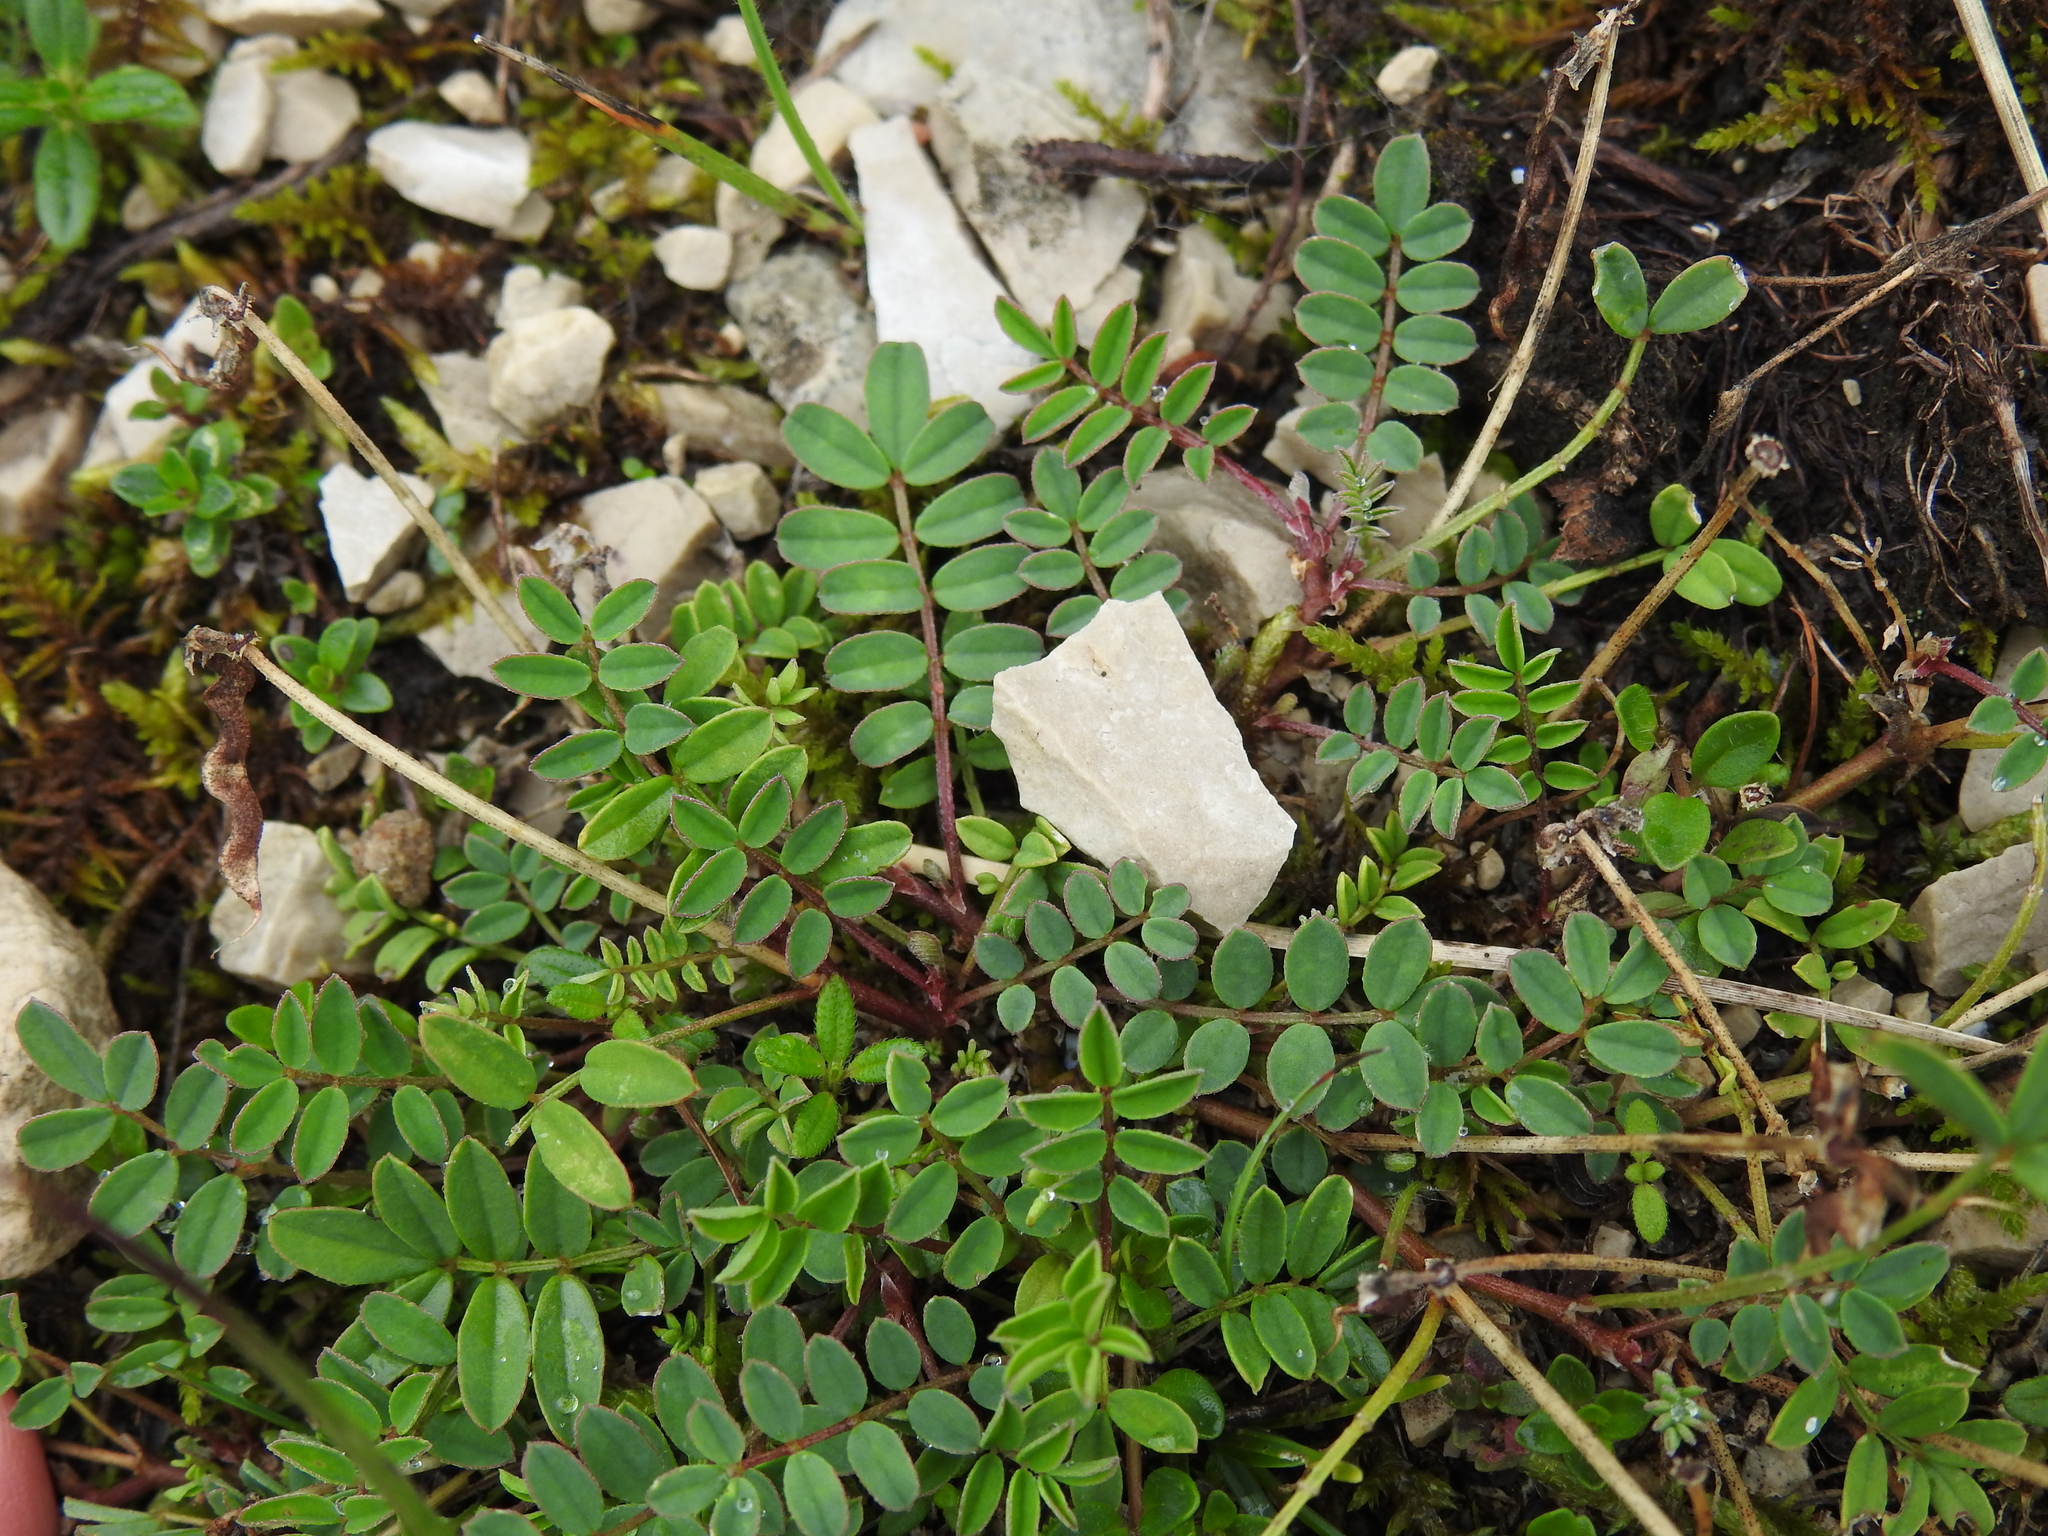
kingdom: Plantae
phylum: Tracheophyta
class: Magnoliopsida
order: Fabales
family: Fabaceae
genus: Hippocrepis
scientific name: Hippocrepis comosa
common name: Horseshoe vetch
